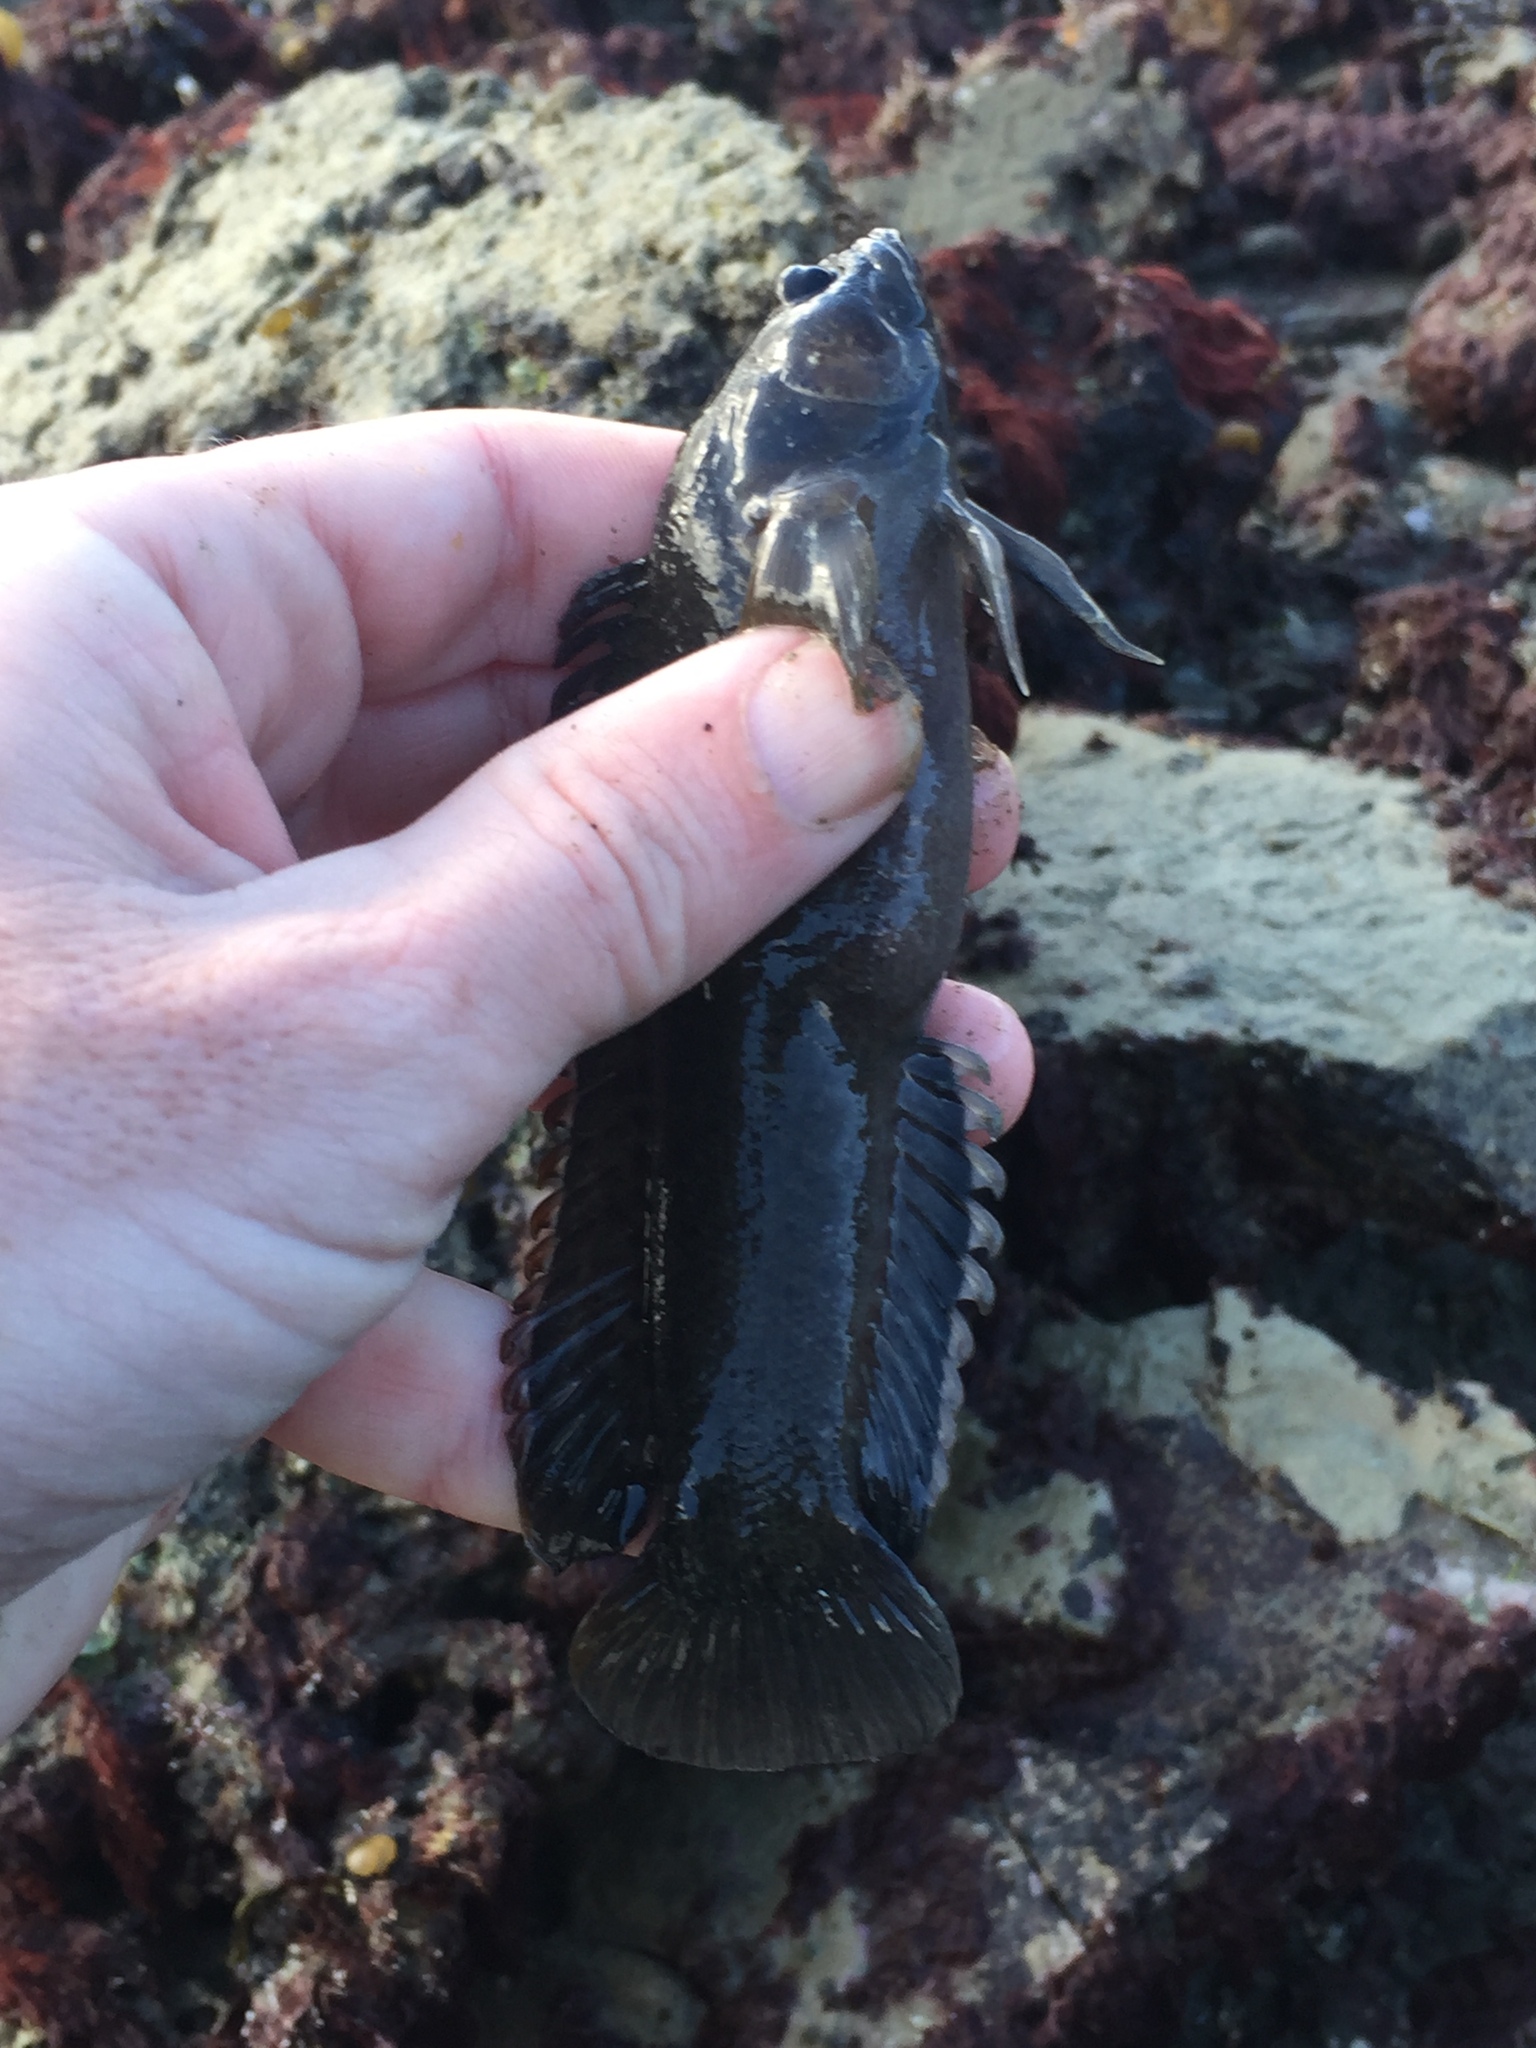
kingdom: Animalia
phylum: Chordata
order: Perciformes
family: Plesiopidae
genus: Acanthoclinus
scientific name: Acanthoclinus fuscus
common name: Olive rockfish
